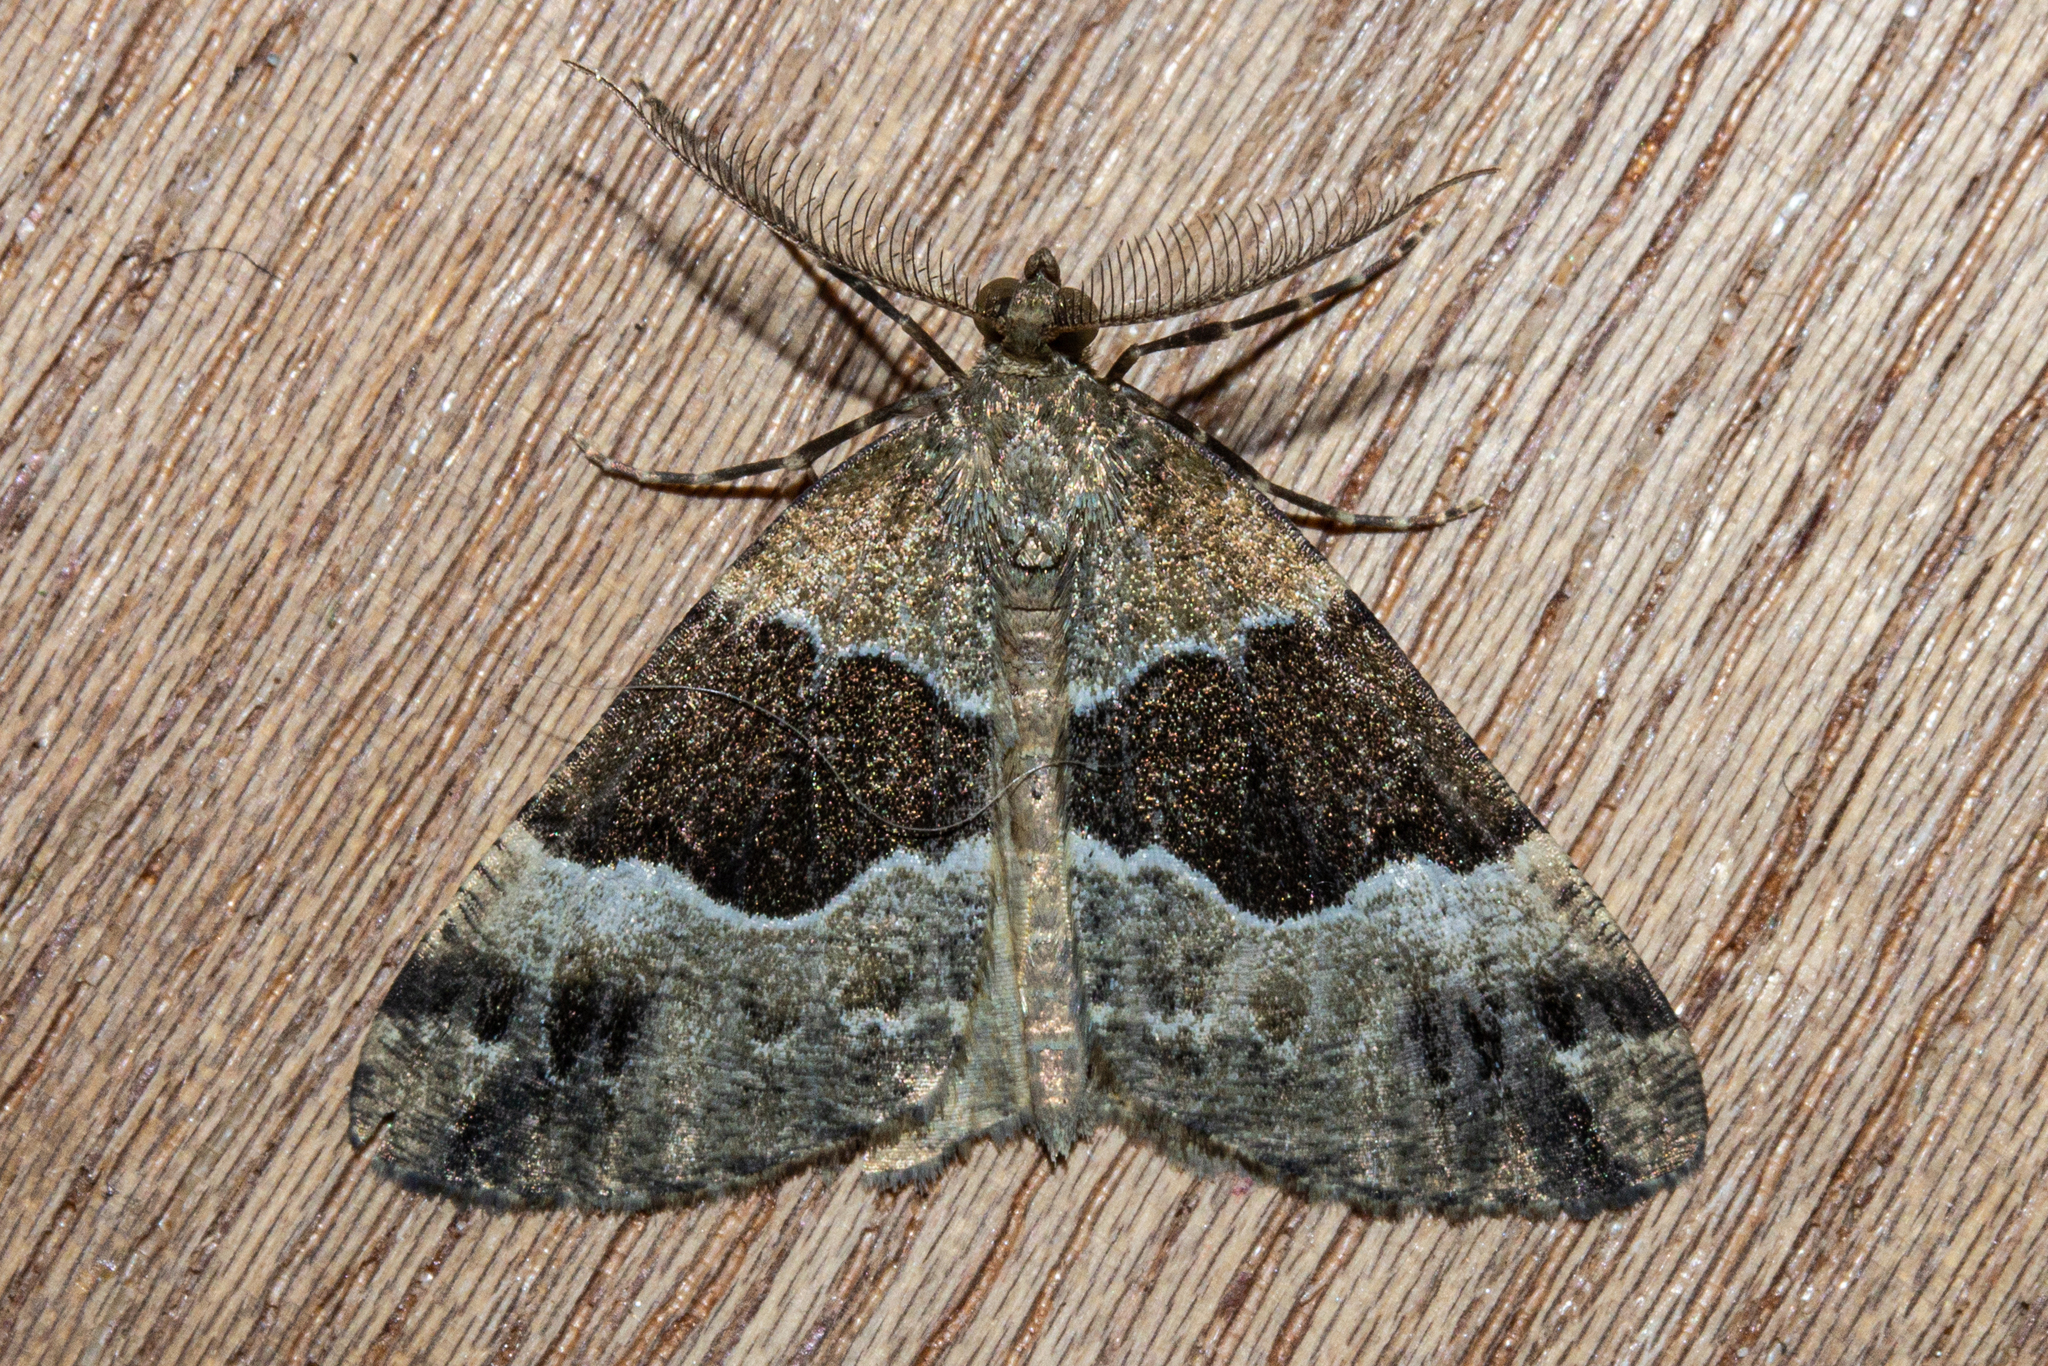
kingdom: Animalia
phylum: Arthropoda
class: Insecta
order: Lepidoptera
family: Geometridae
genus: Pseudocoremia
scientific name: Pseudocoremia
